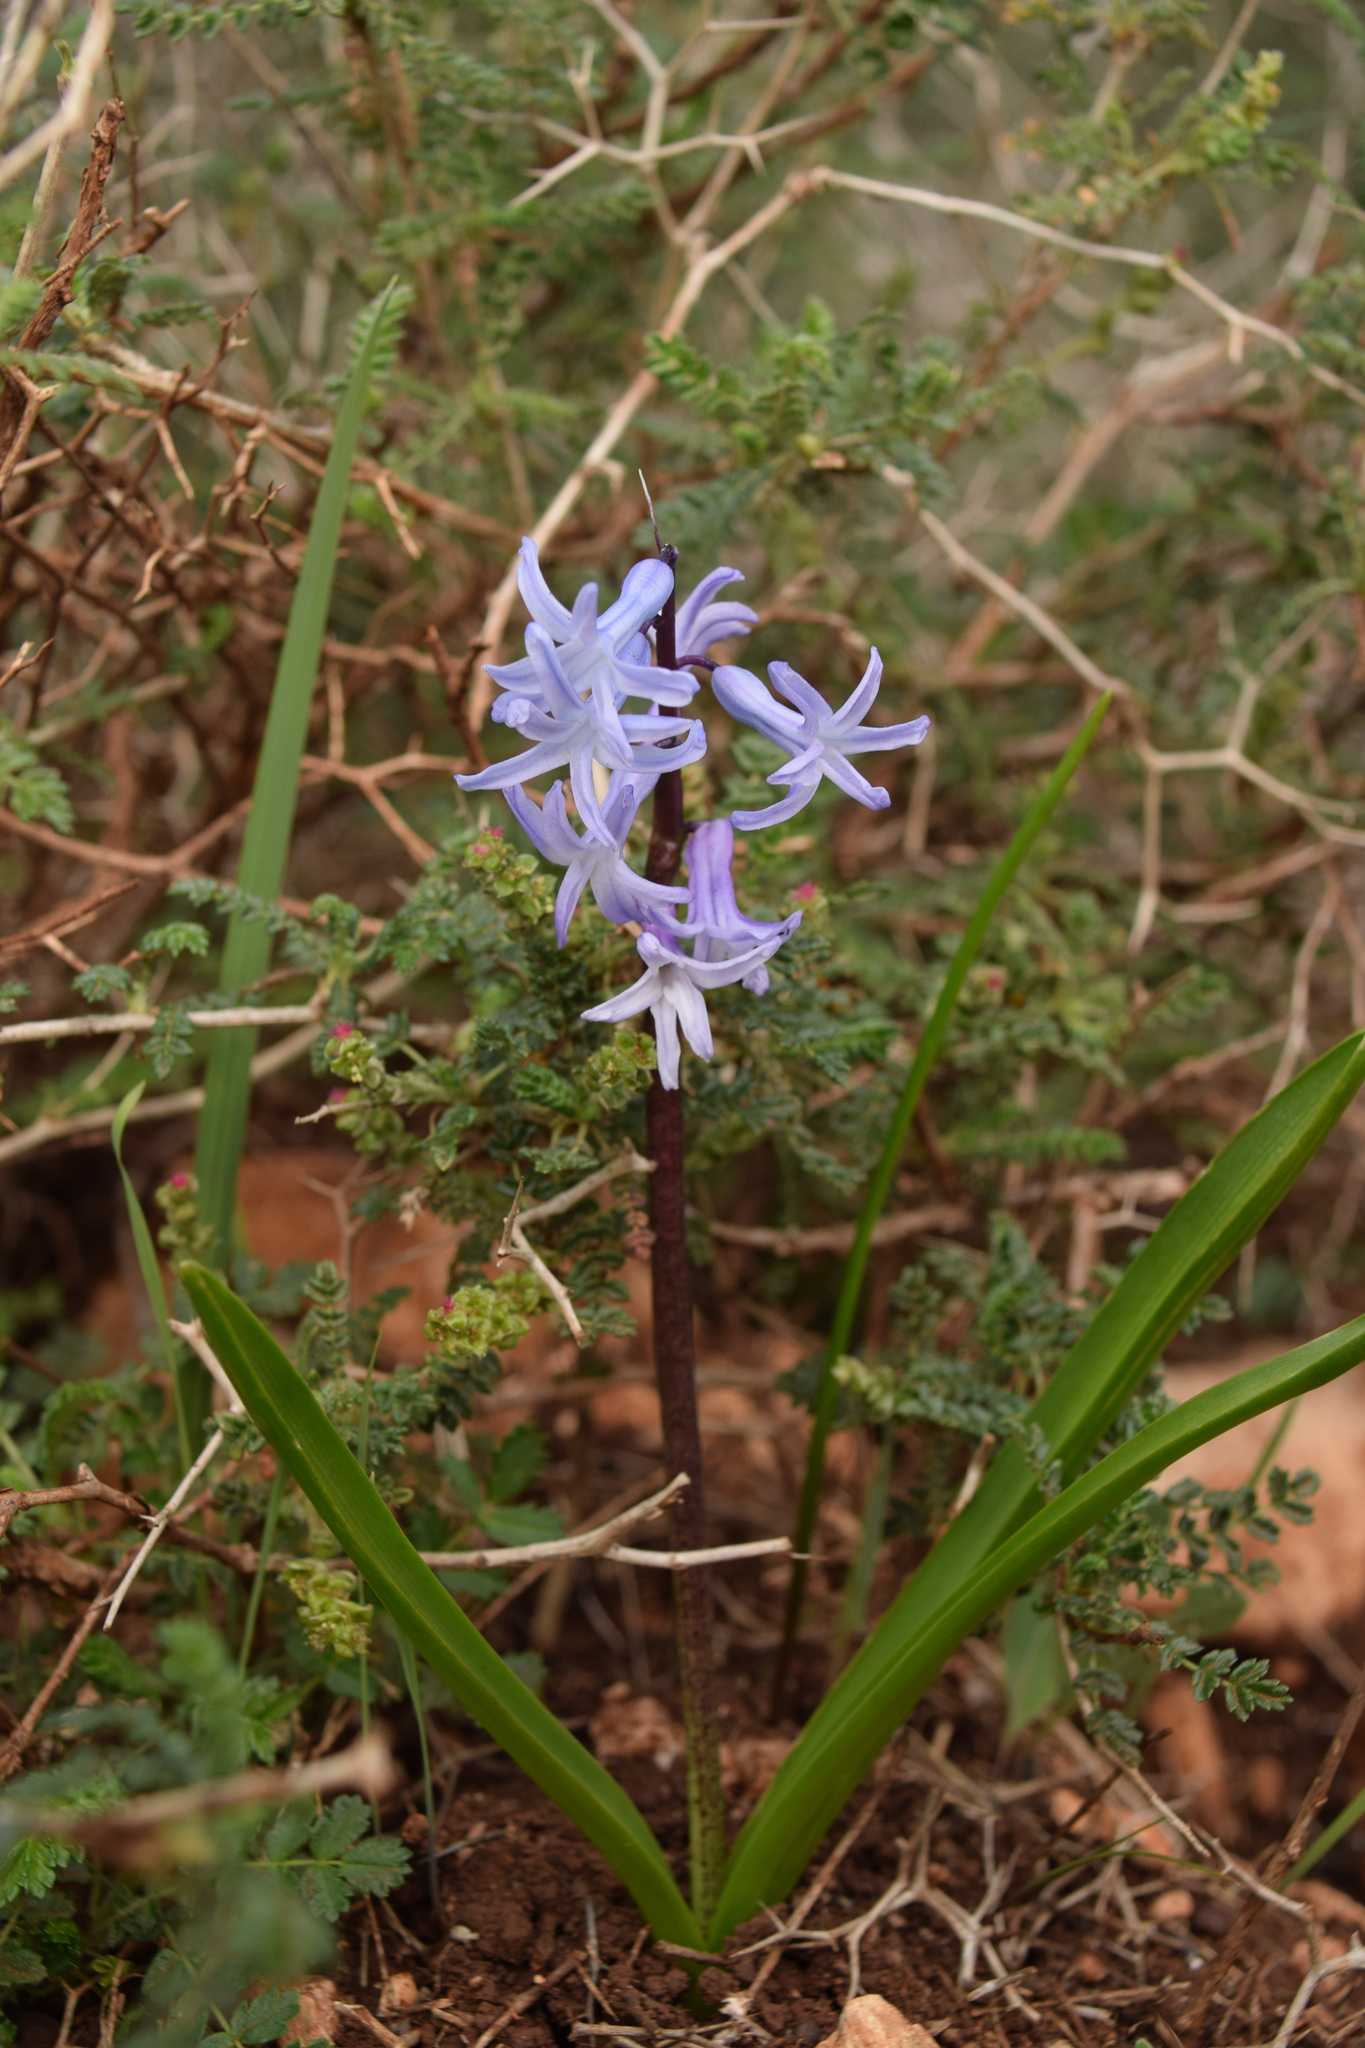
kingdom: Plantae
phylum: Tracheophyta
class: Liliopsida
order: Asparagales
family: Asparagaceae
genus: Hyacinthus
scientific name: Hyacinthus orientalis
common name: Hyacinth
